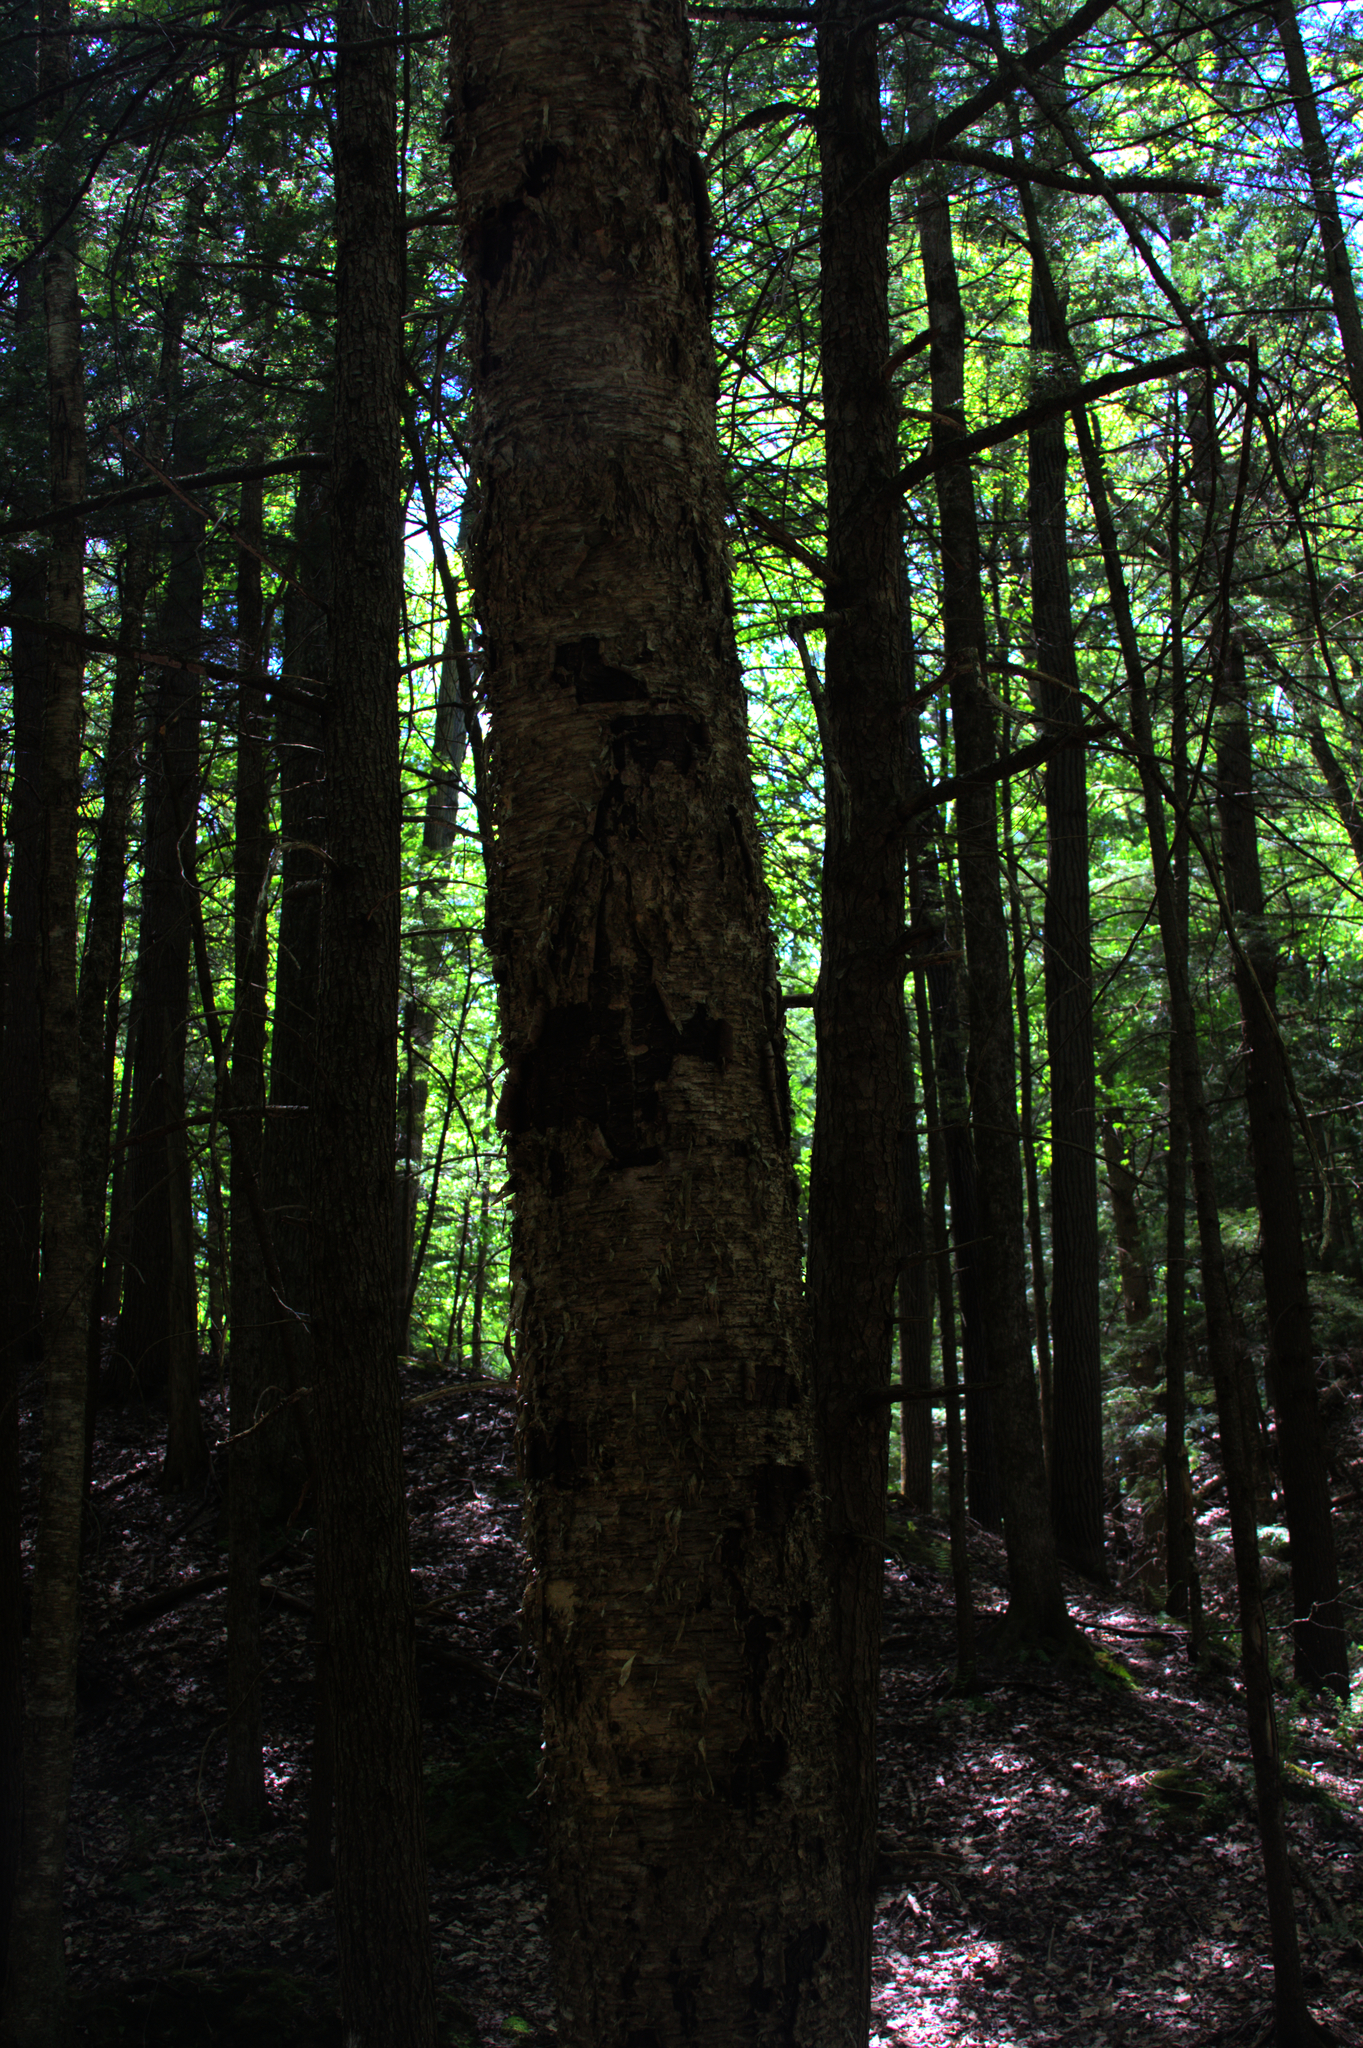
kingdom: Plantae
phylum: Tracheophyta
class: Magnoliopsida
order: Fagales
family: Betulaceae
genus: Betula
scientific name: Betula alleghaniensis
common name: Yellow birch
